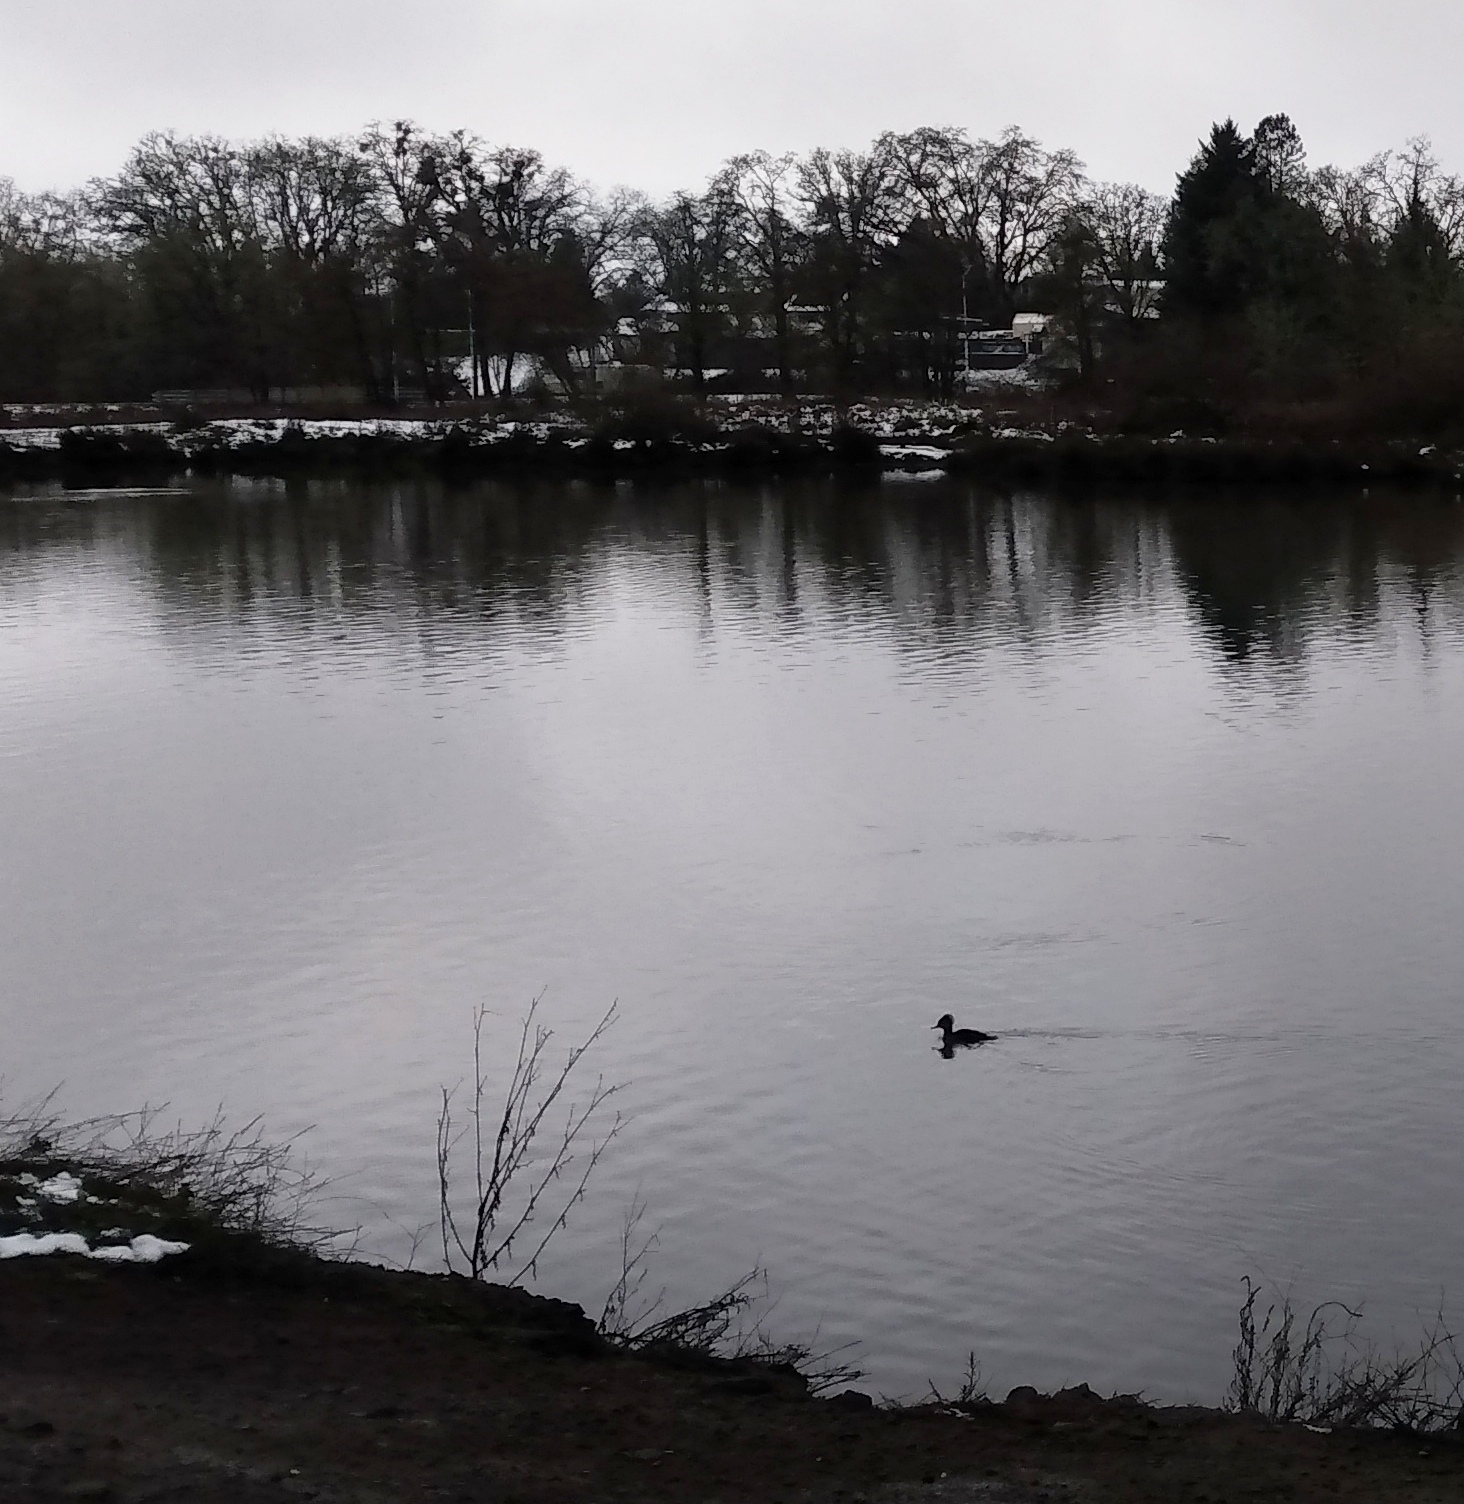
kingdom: Animalia
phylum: Chordata
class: Aves
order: Anseriformes
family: Anatidae
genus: Lophodytes
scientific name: Lophodytes cucullatus
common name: Hooded merganser
